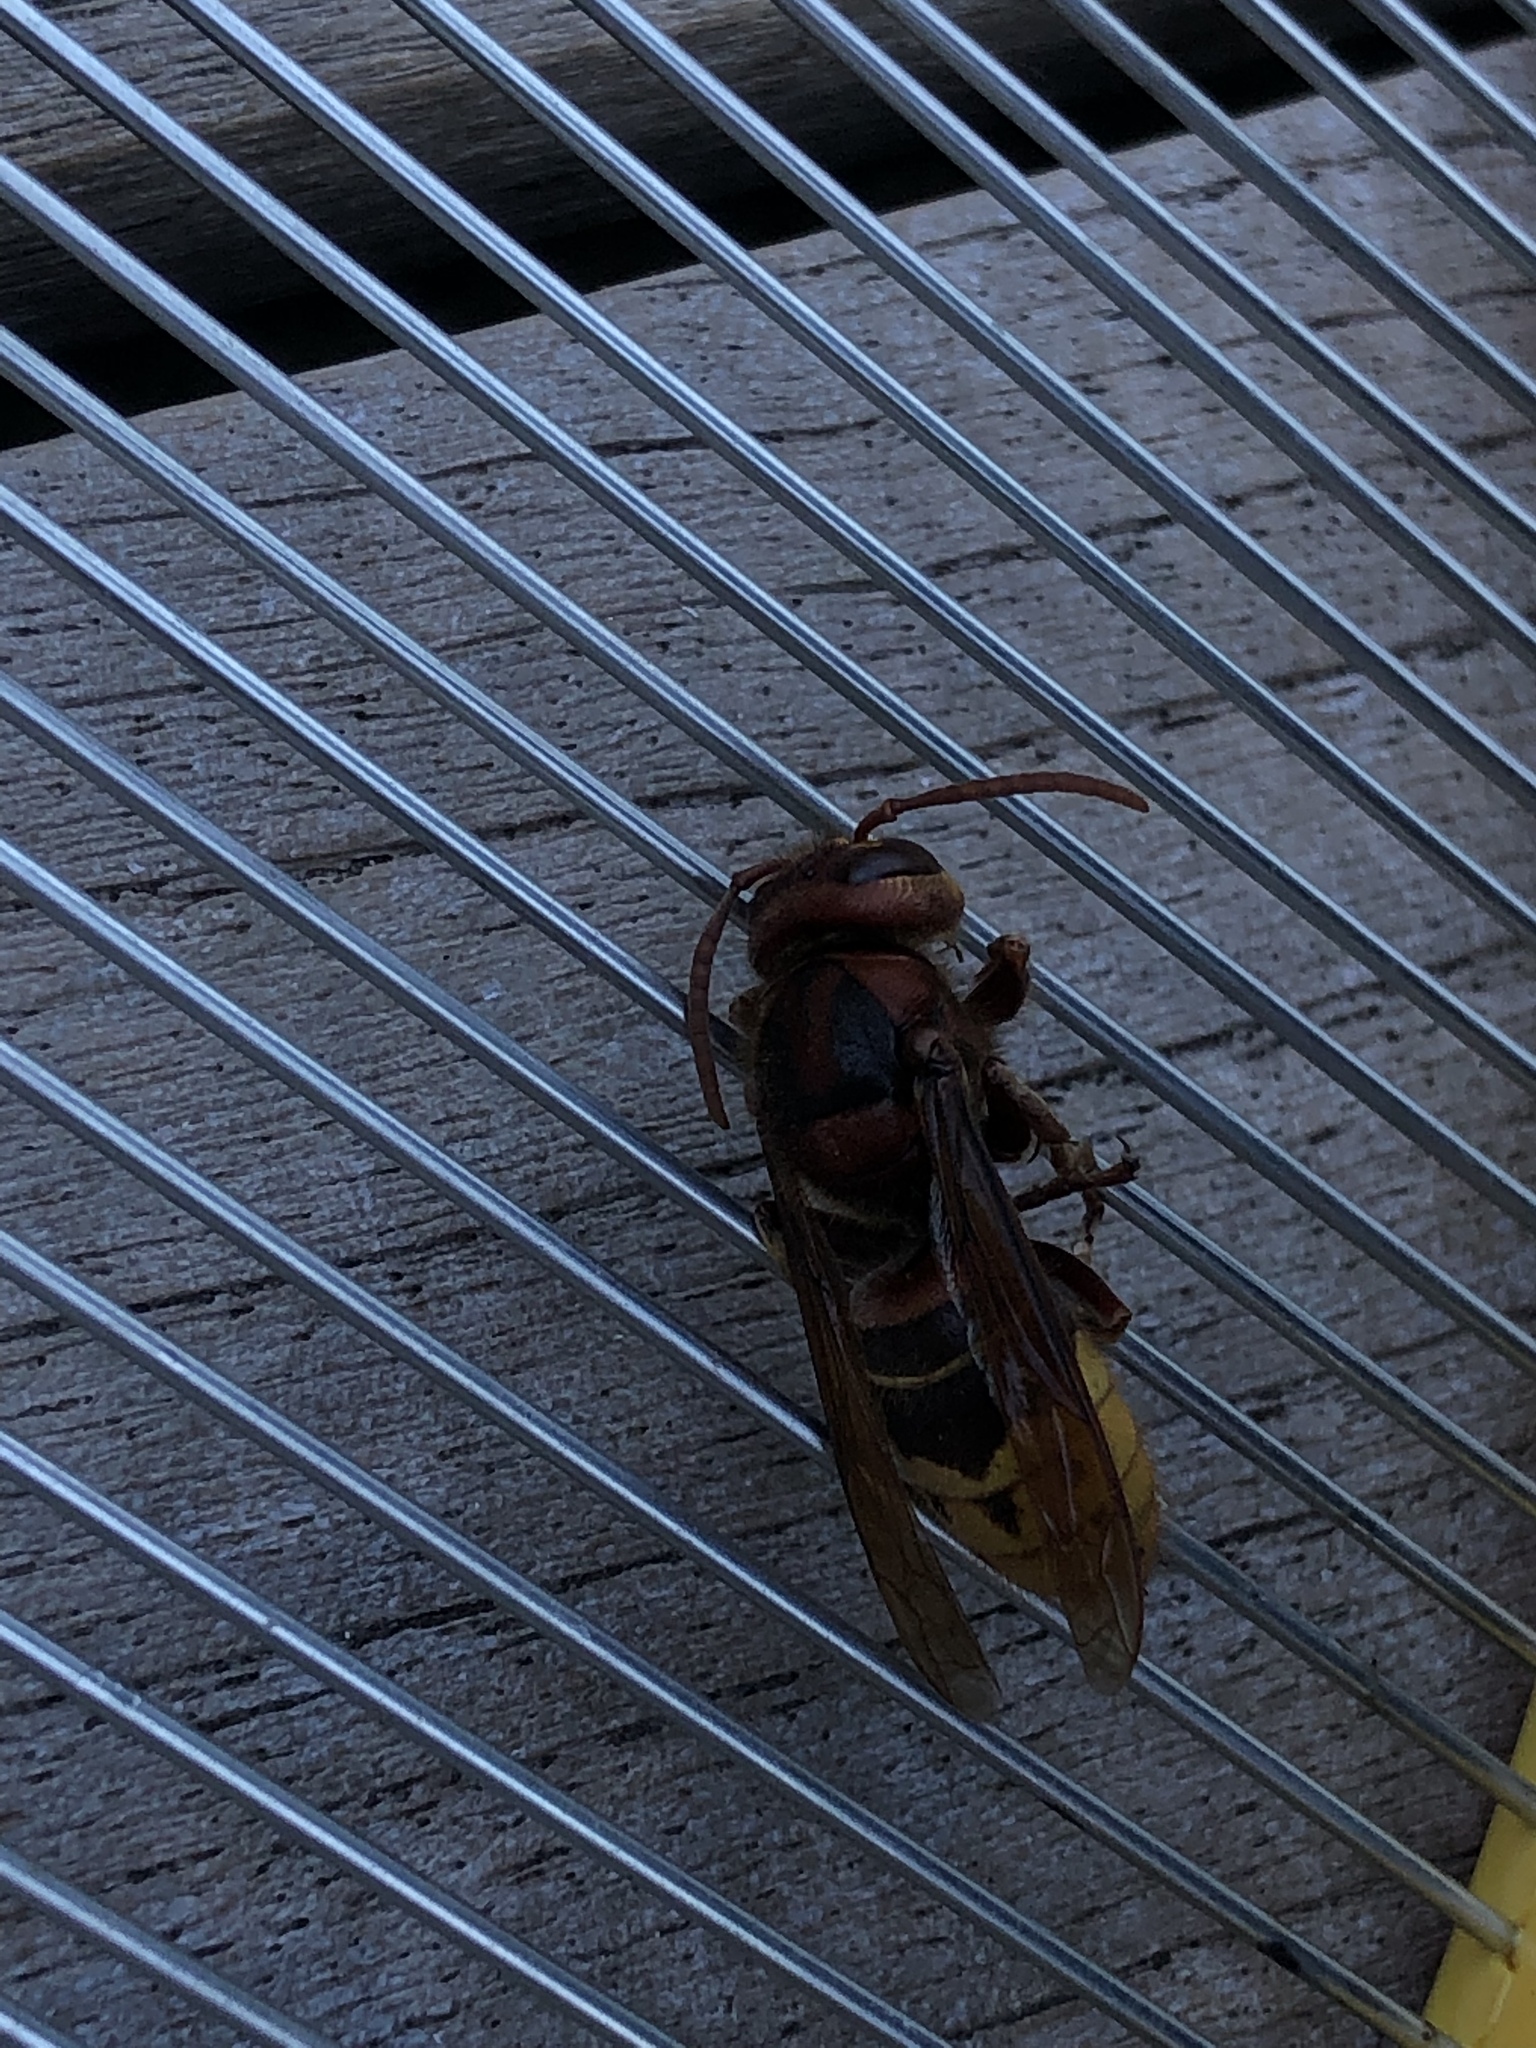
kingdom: Animalia
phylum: Arthropoda
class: Insecta
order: Hymenoptera
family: Vespidae
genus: Vespa
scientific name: Vespa crabro
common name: Hornet
